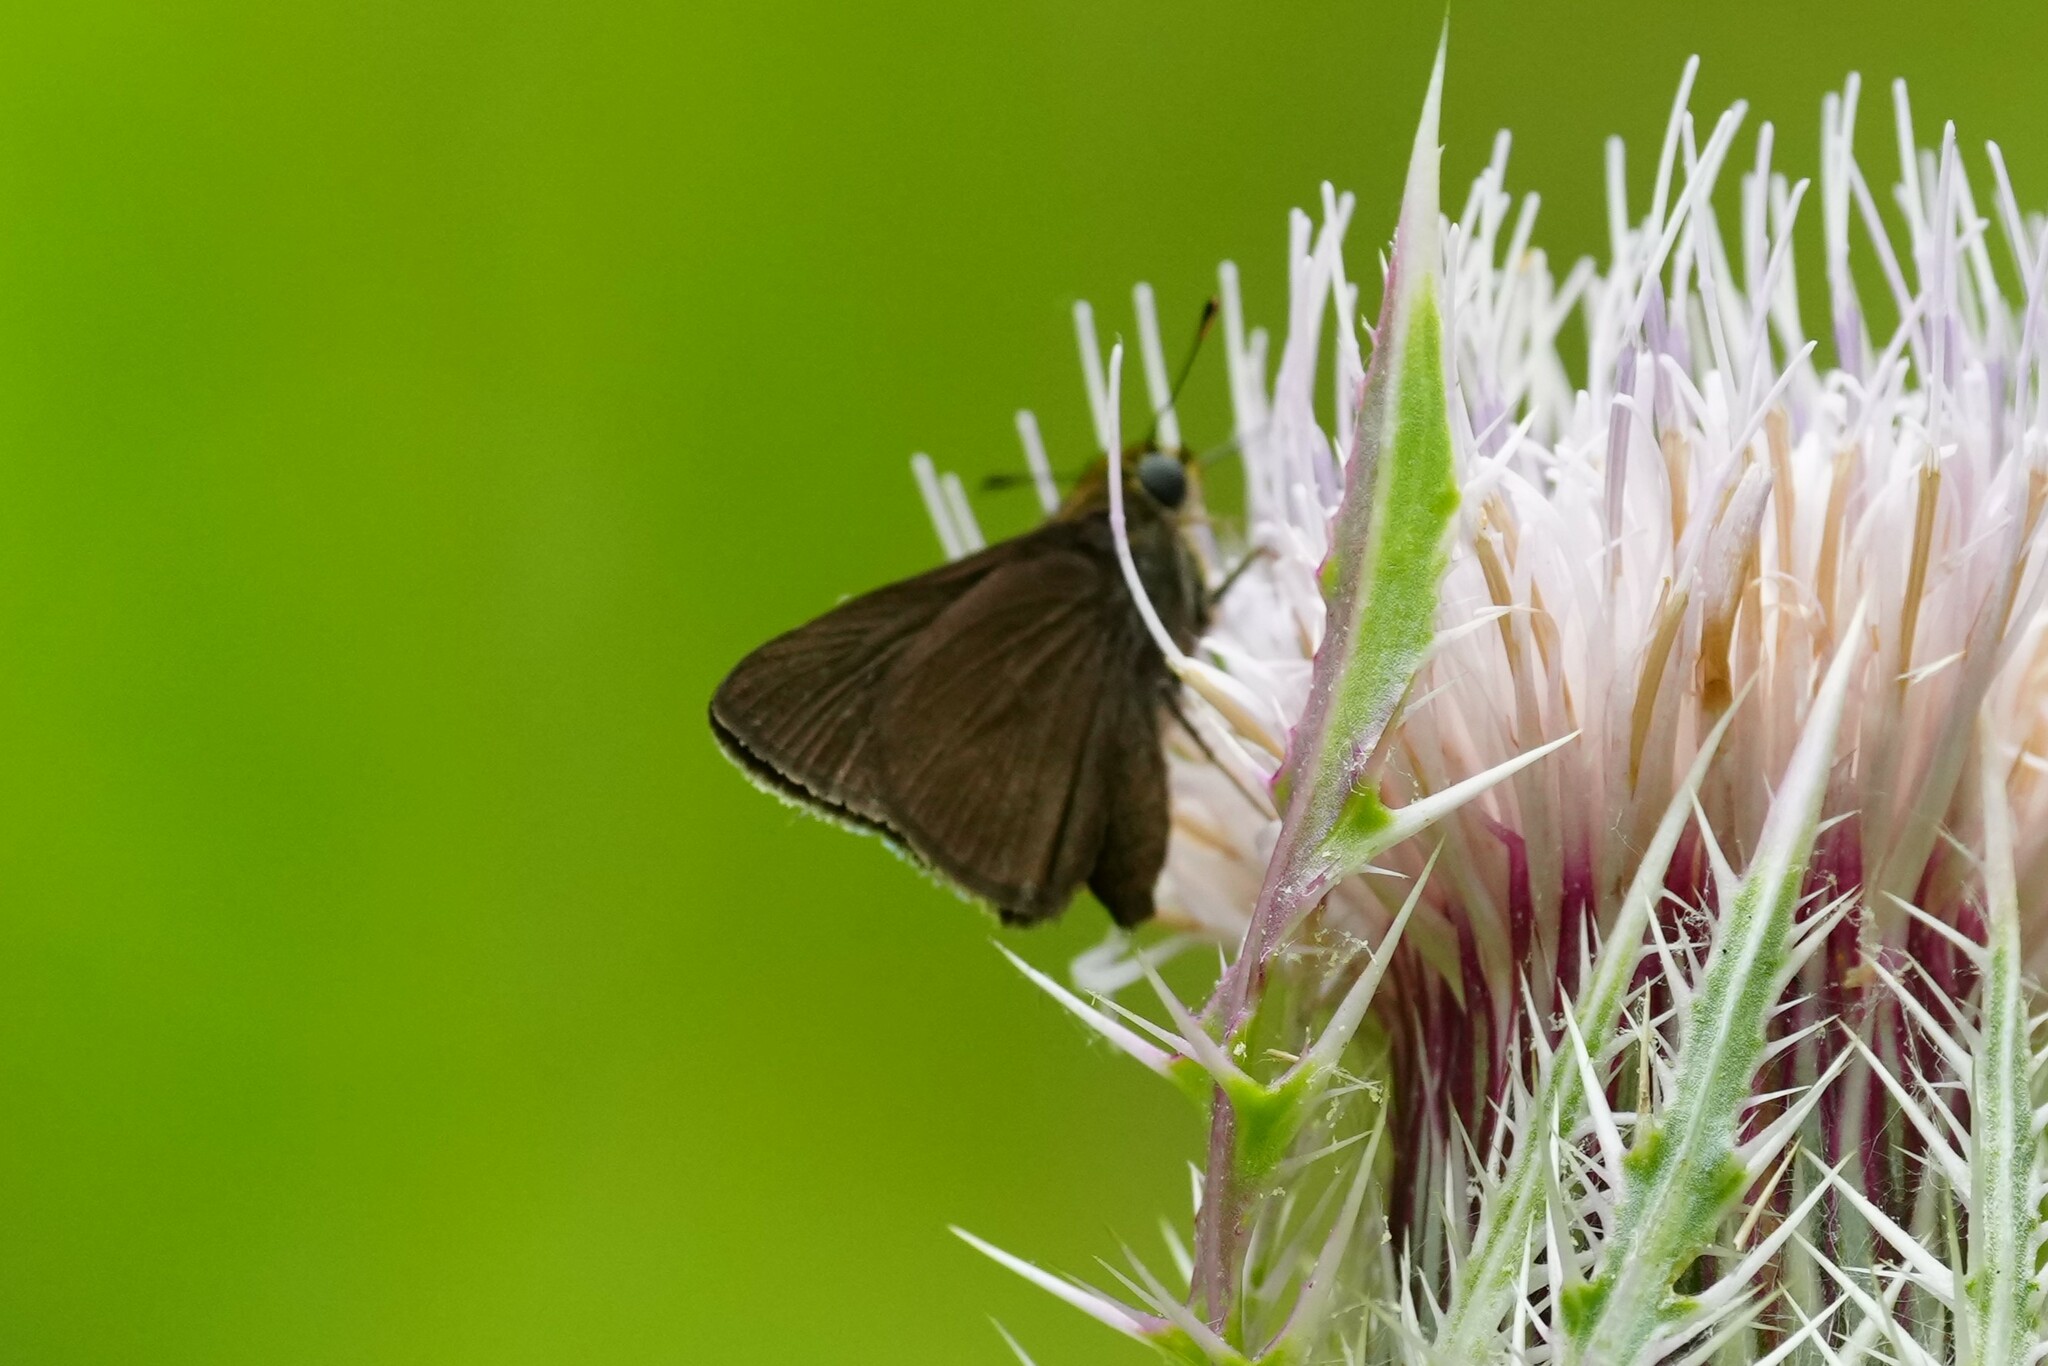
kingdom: Animalia
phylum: Arthropoda
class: Insecta
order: Lepidoptera
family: Hesperiidae
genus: Euphyes
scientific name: Euphyes vestris
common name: Dun skipper
